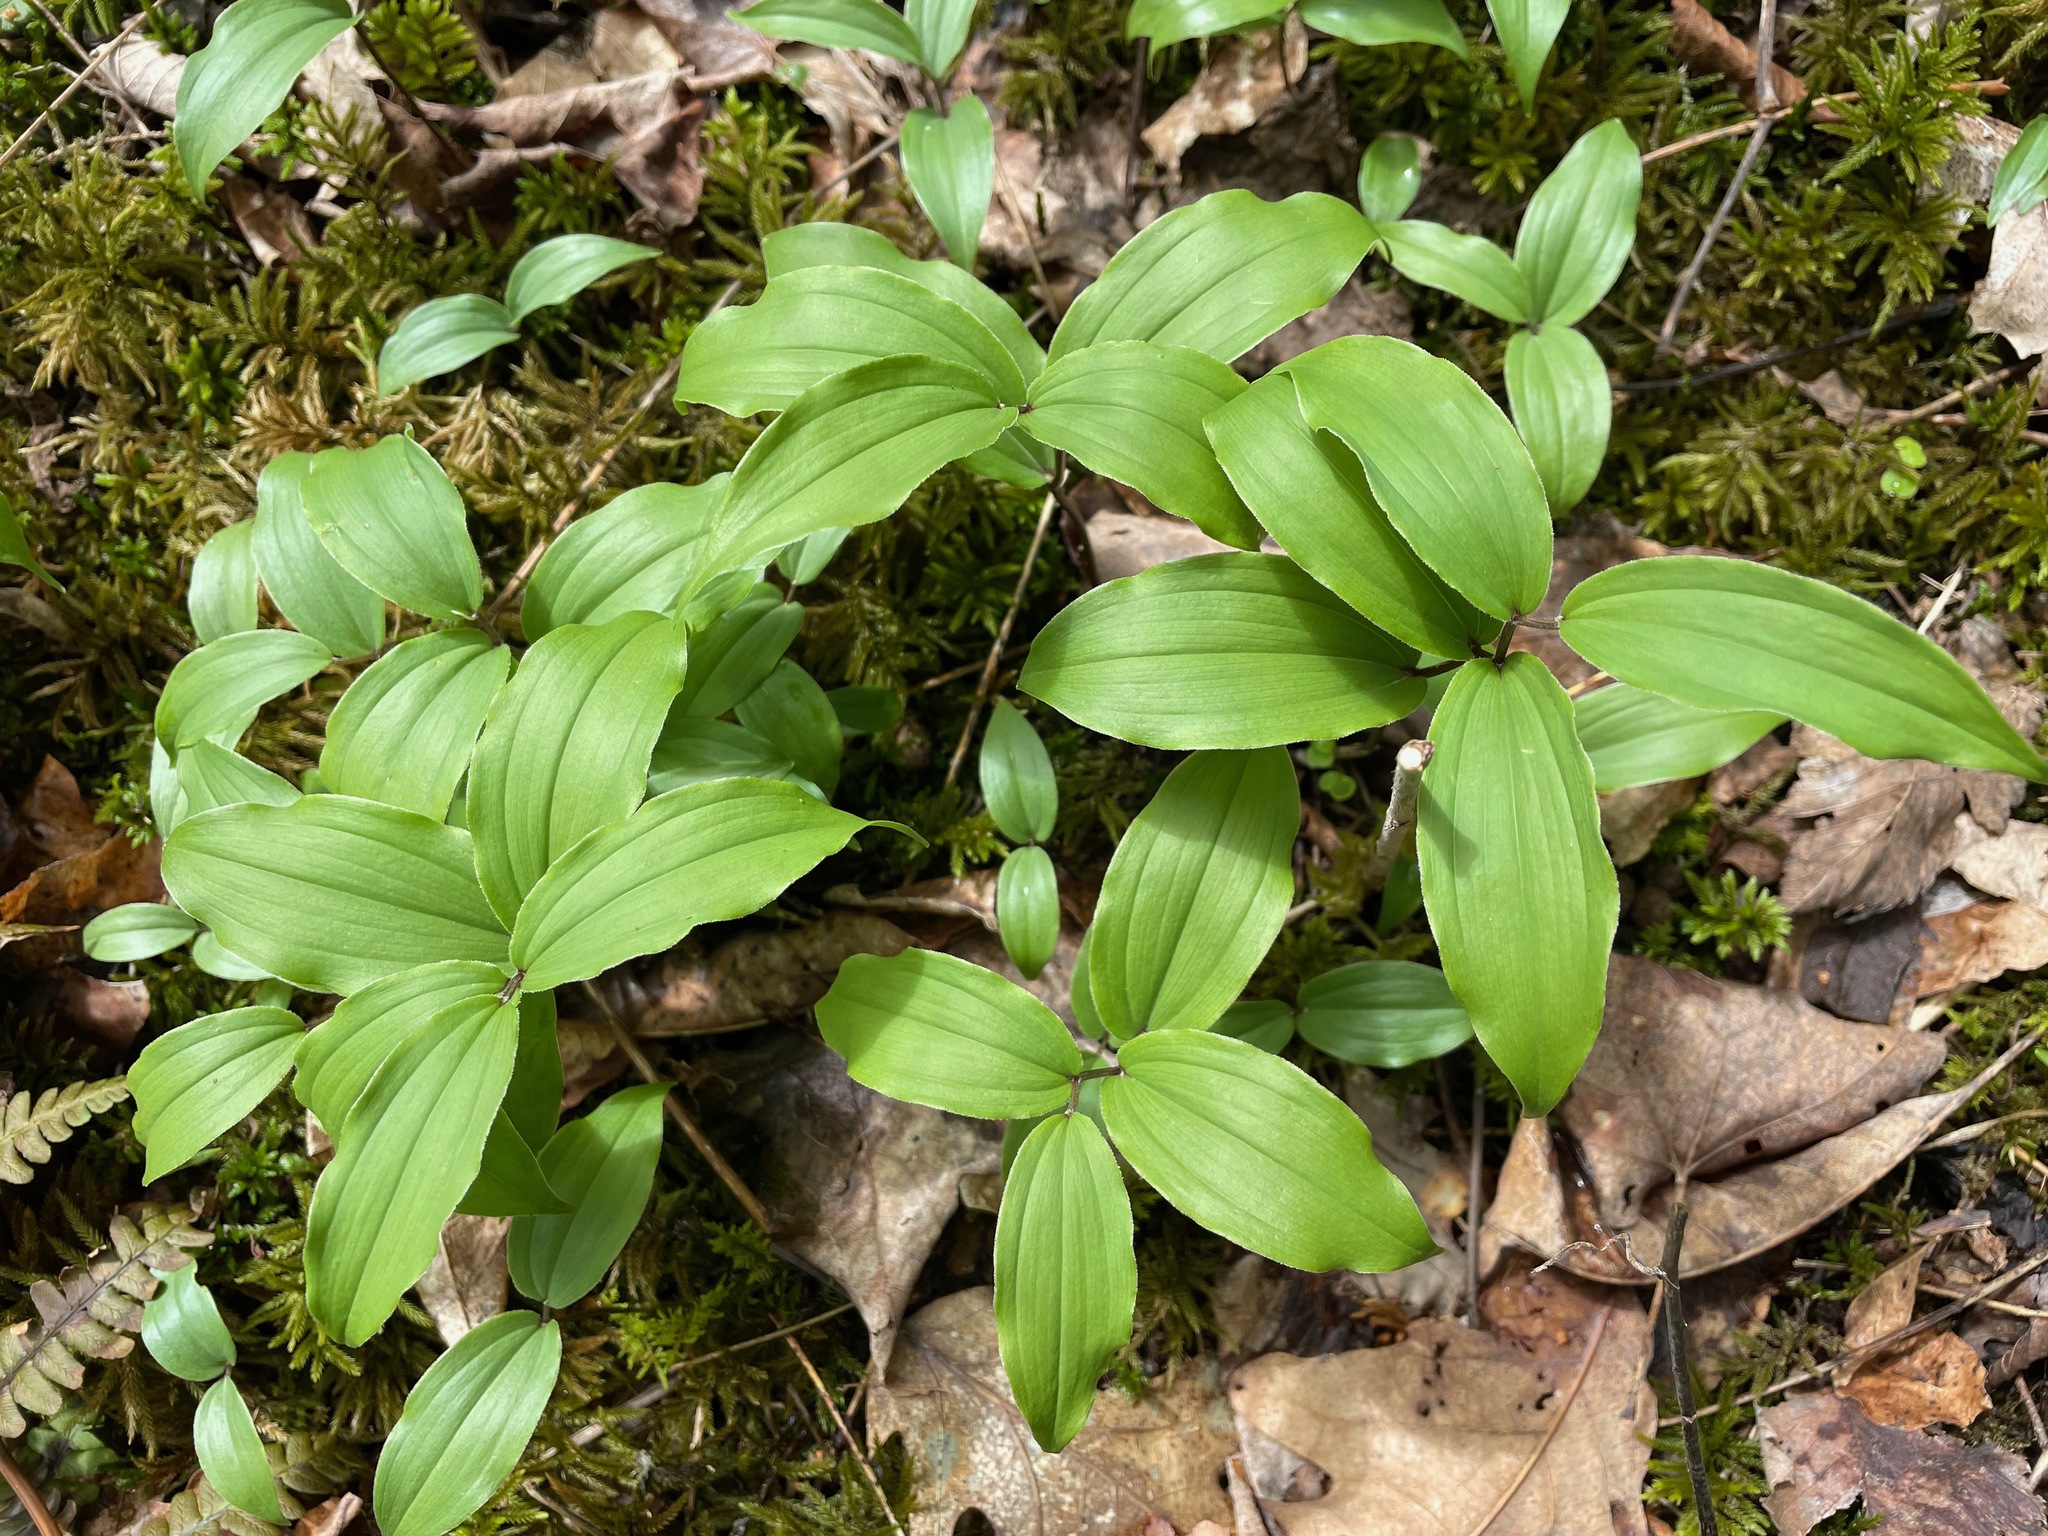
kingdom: Plantae
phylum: Tracheophyta
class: Liliopsida
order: Asparagales
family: Asparagaceae
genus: Maianthemum
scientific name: Maianthemum racemosum
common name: False spikenard
